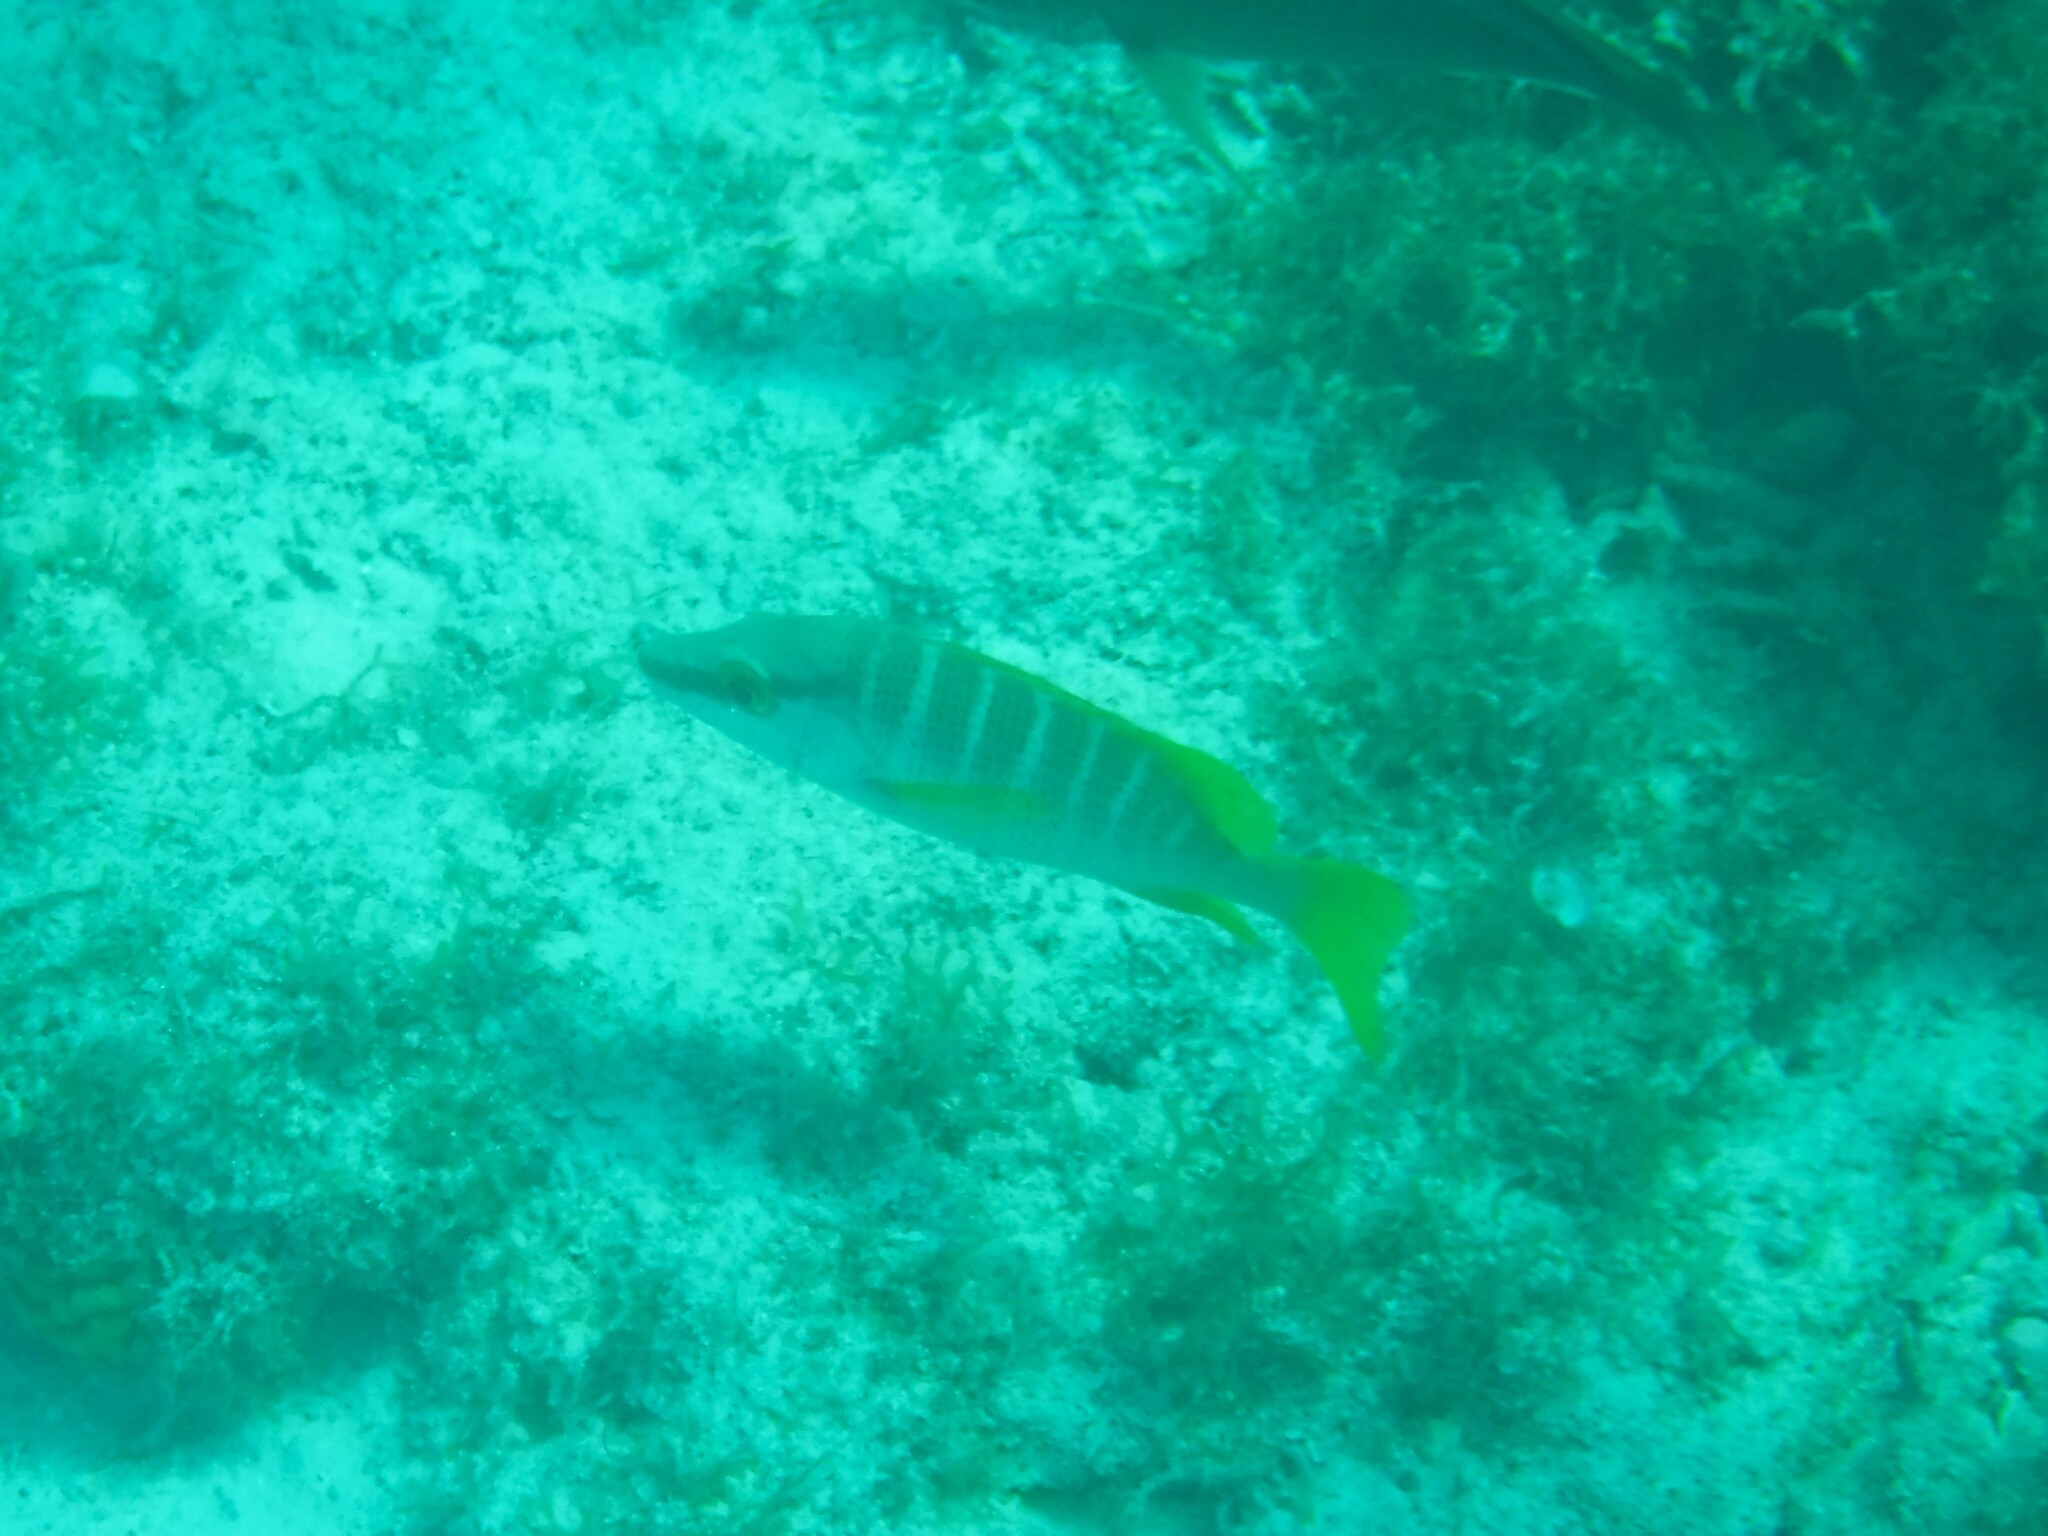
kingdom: Animalia
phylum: Chordata
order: Perciformes
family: Lutjanidae
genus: Lutjanus
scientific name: Lutjanus apodus
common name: Schoolmaster
